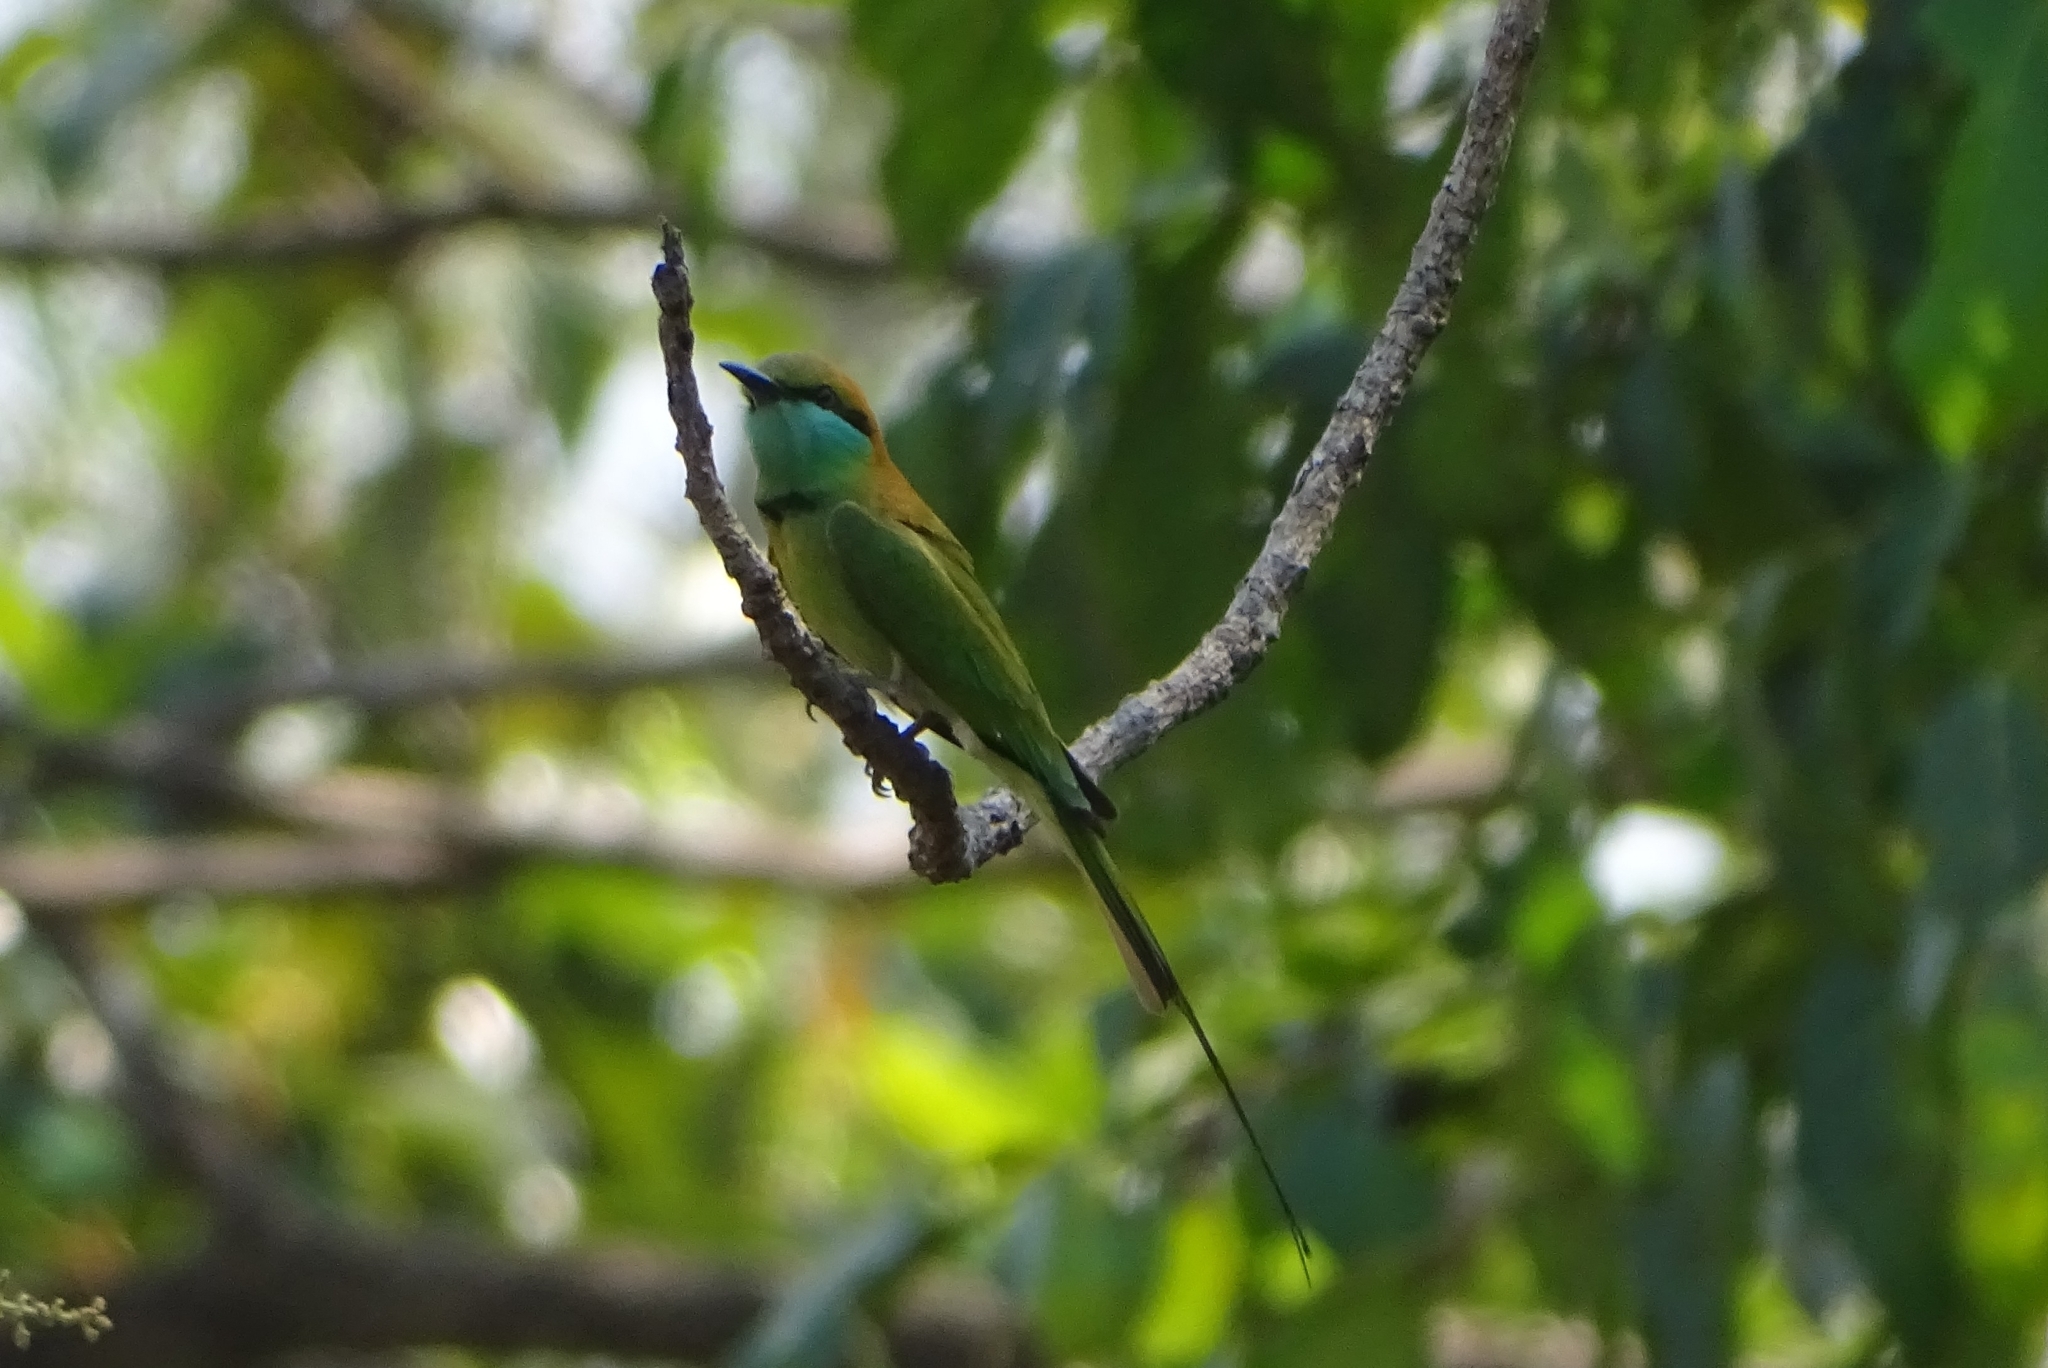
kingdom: Animalia
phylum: Chordata
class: Aves
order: Coraciiformes
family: Meropidae
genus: Merops
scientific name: Merops orientalis
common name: Green bee-eater
